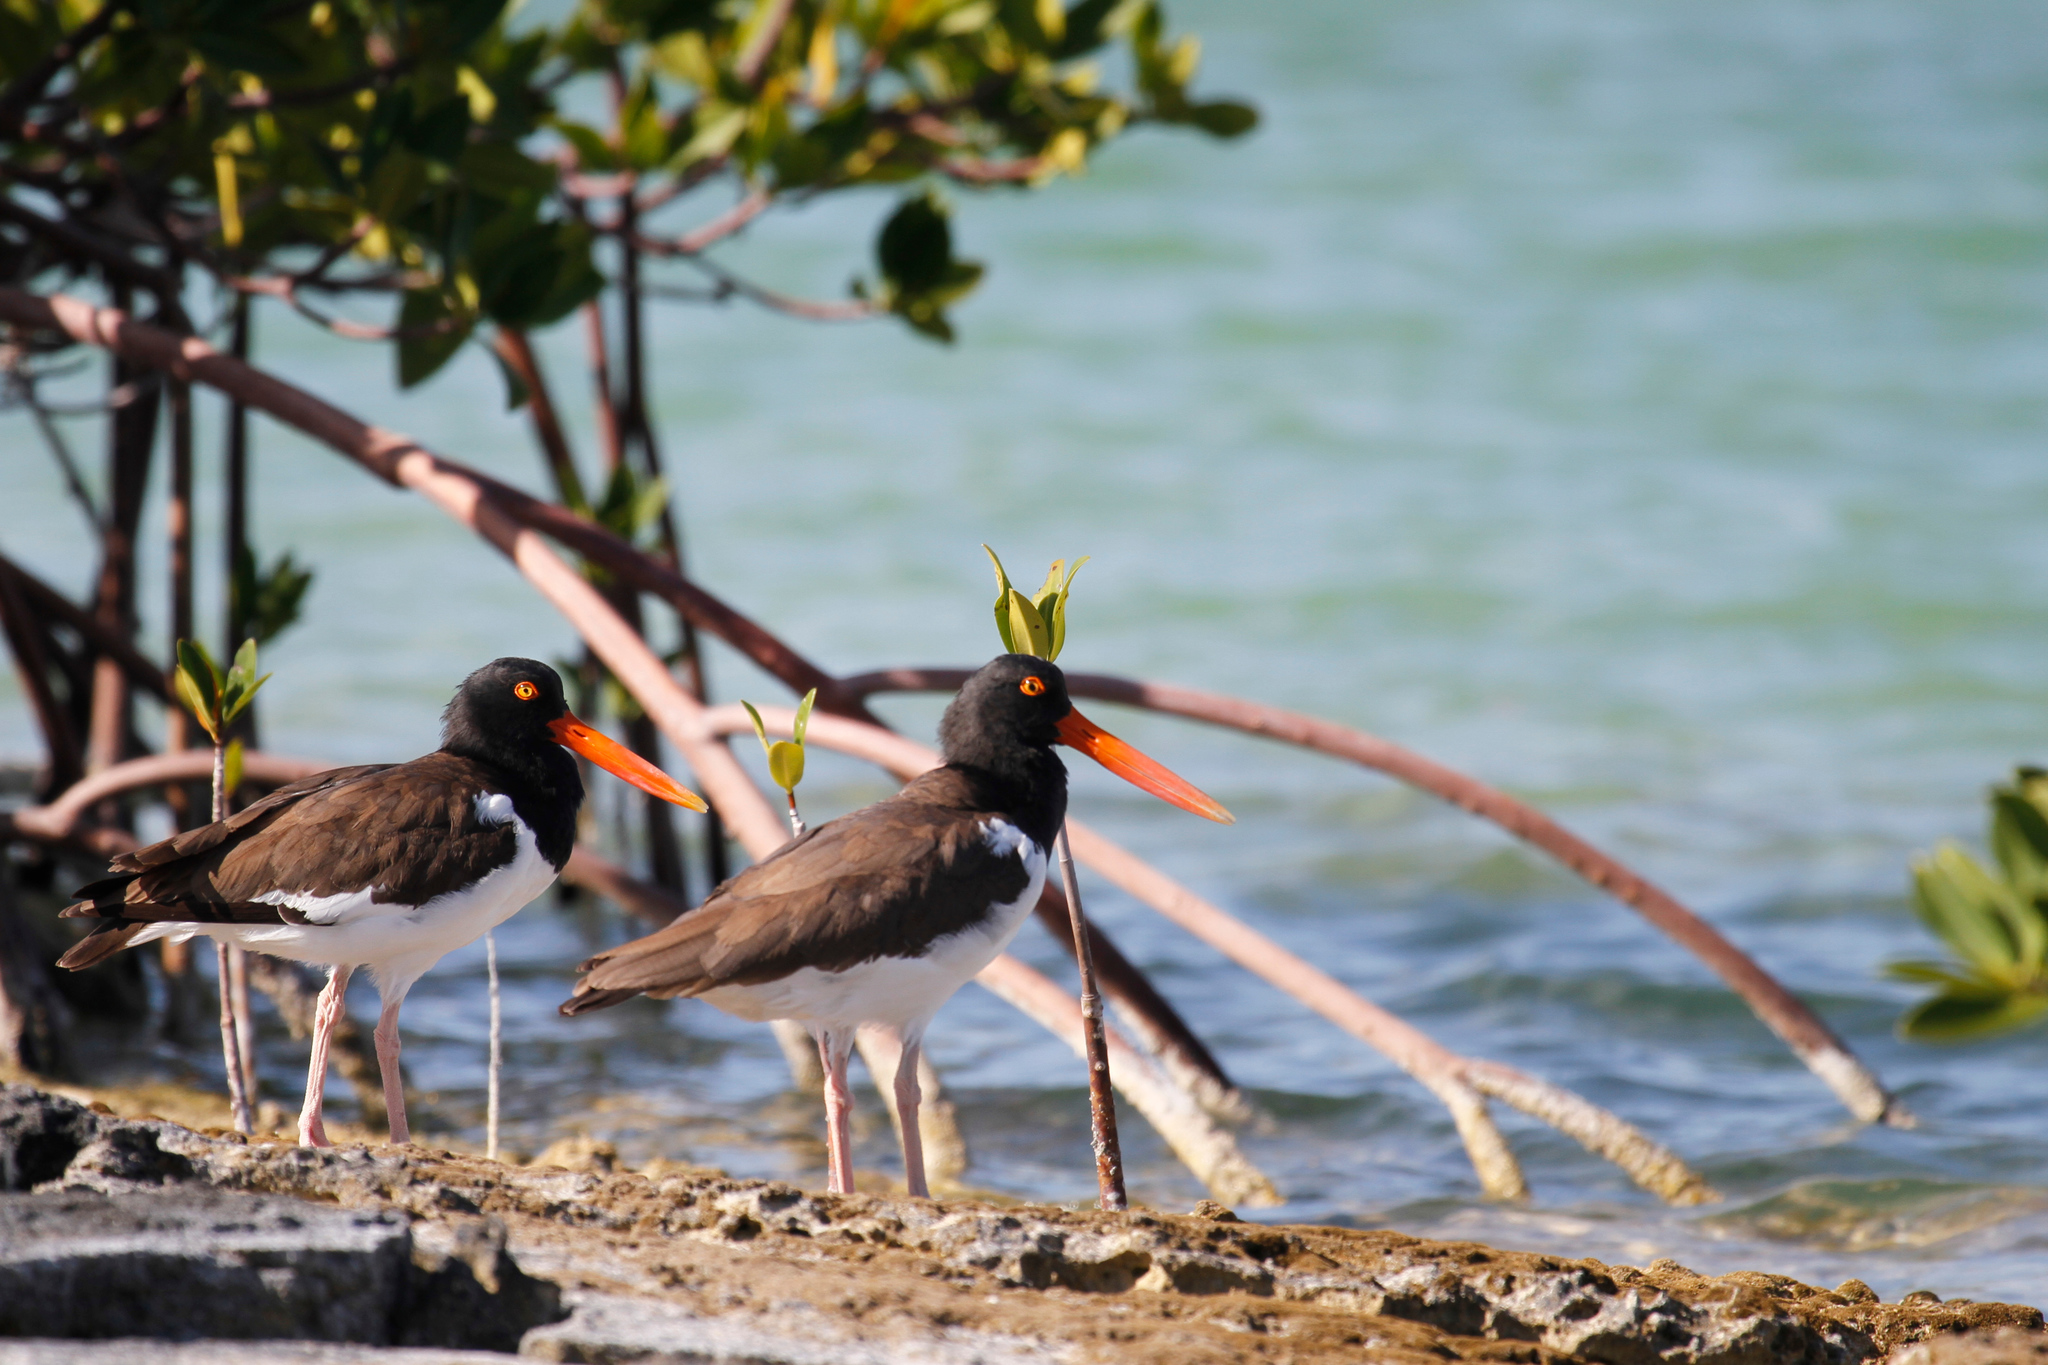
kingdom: Animalia
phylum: Chordata
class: Aves
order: Charadriiformes
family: Haematopodidae
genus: Haematopus
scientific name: Haematopus palliatus
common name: American oystercatcher
